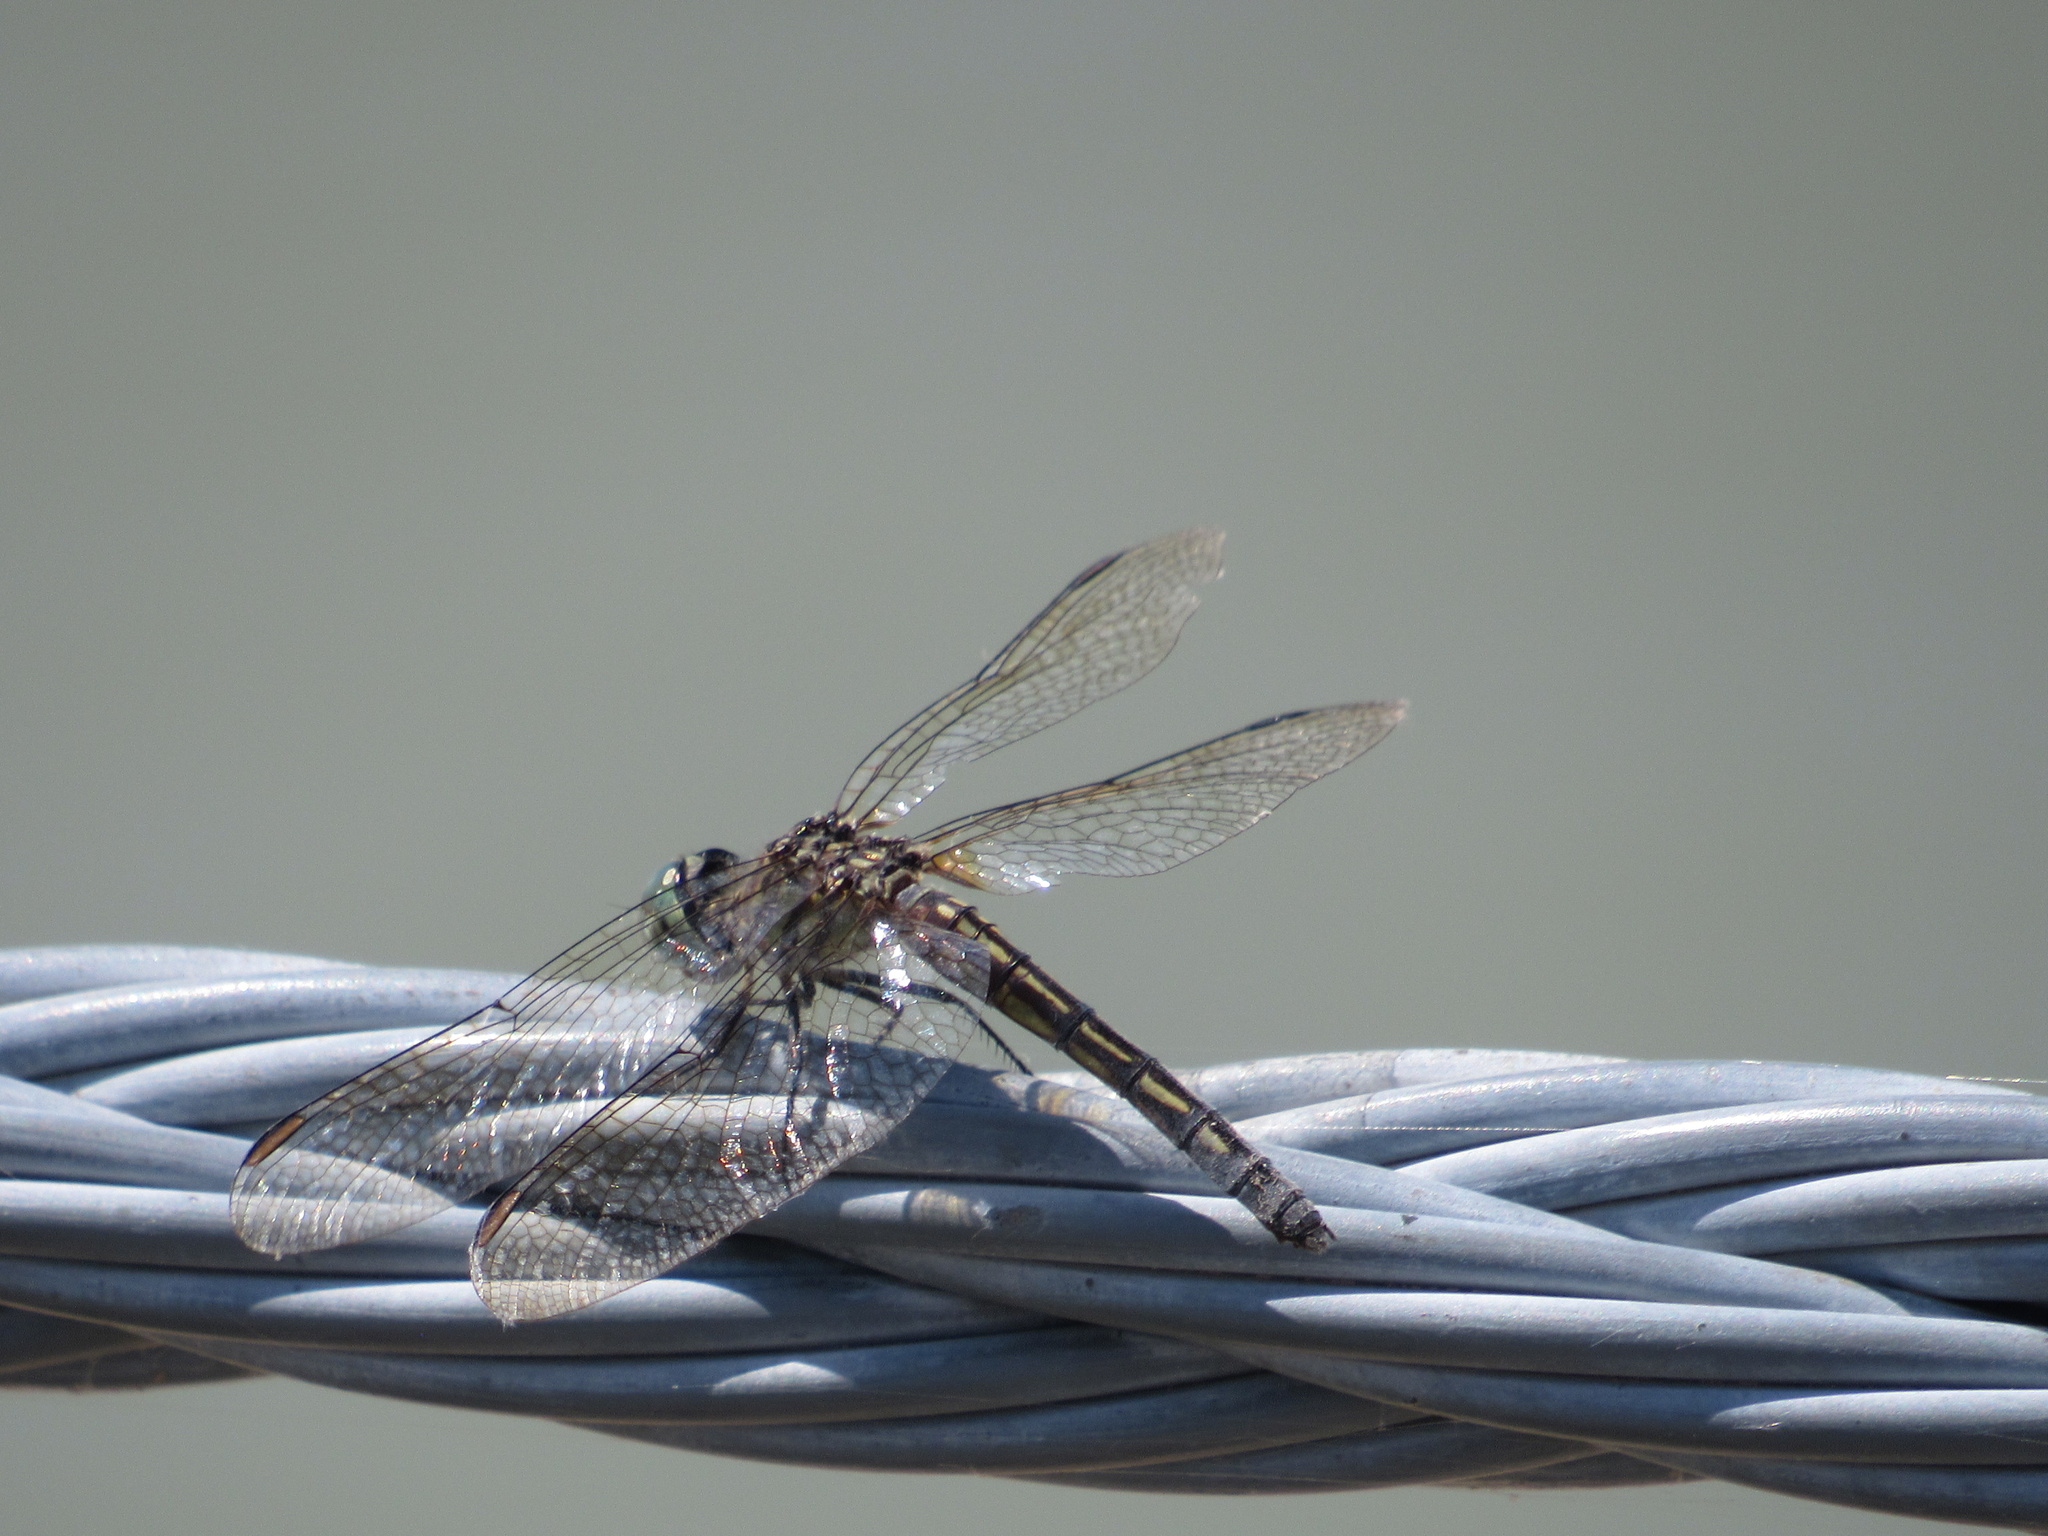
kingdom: Animalia
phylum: Arthropoda
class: Insecta
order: Odonata
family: Libellulidae
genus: Pachydiplax
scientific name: Pachydiplax longipennis
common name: Blue dasher
